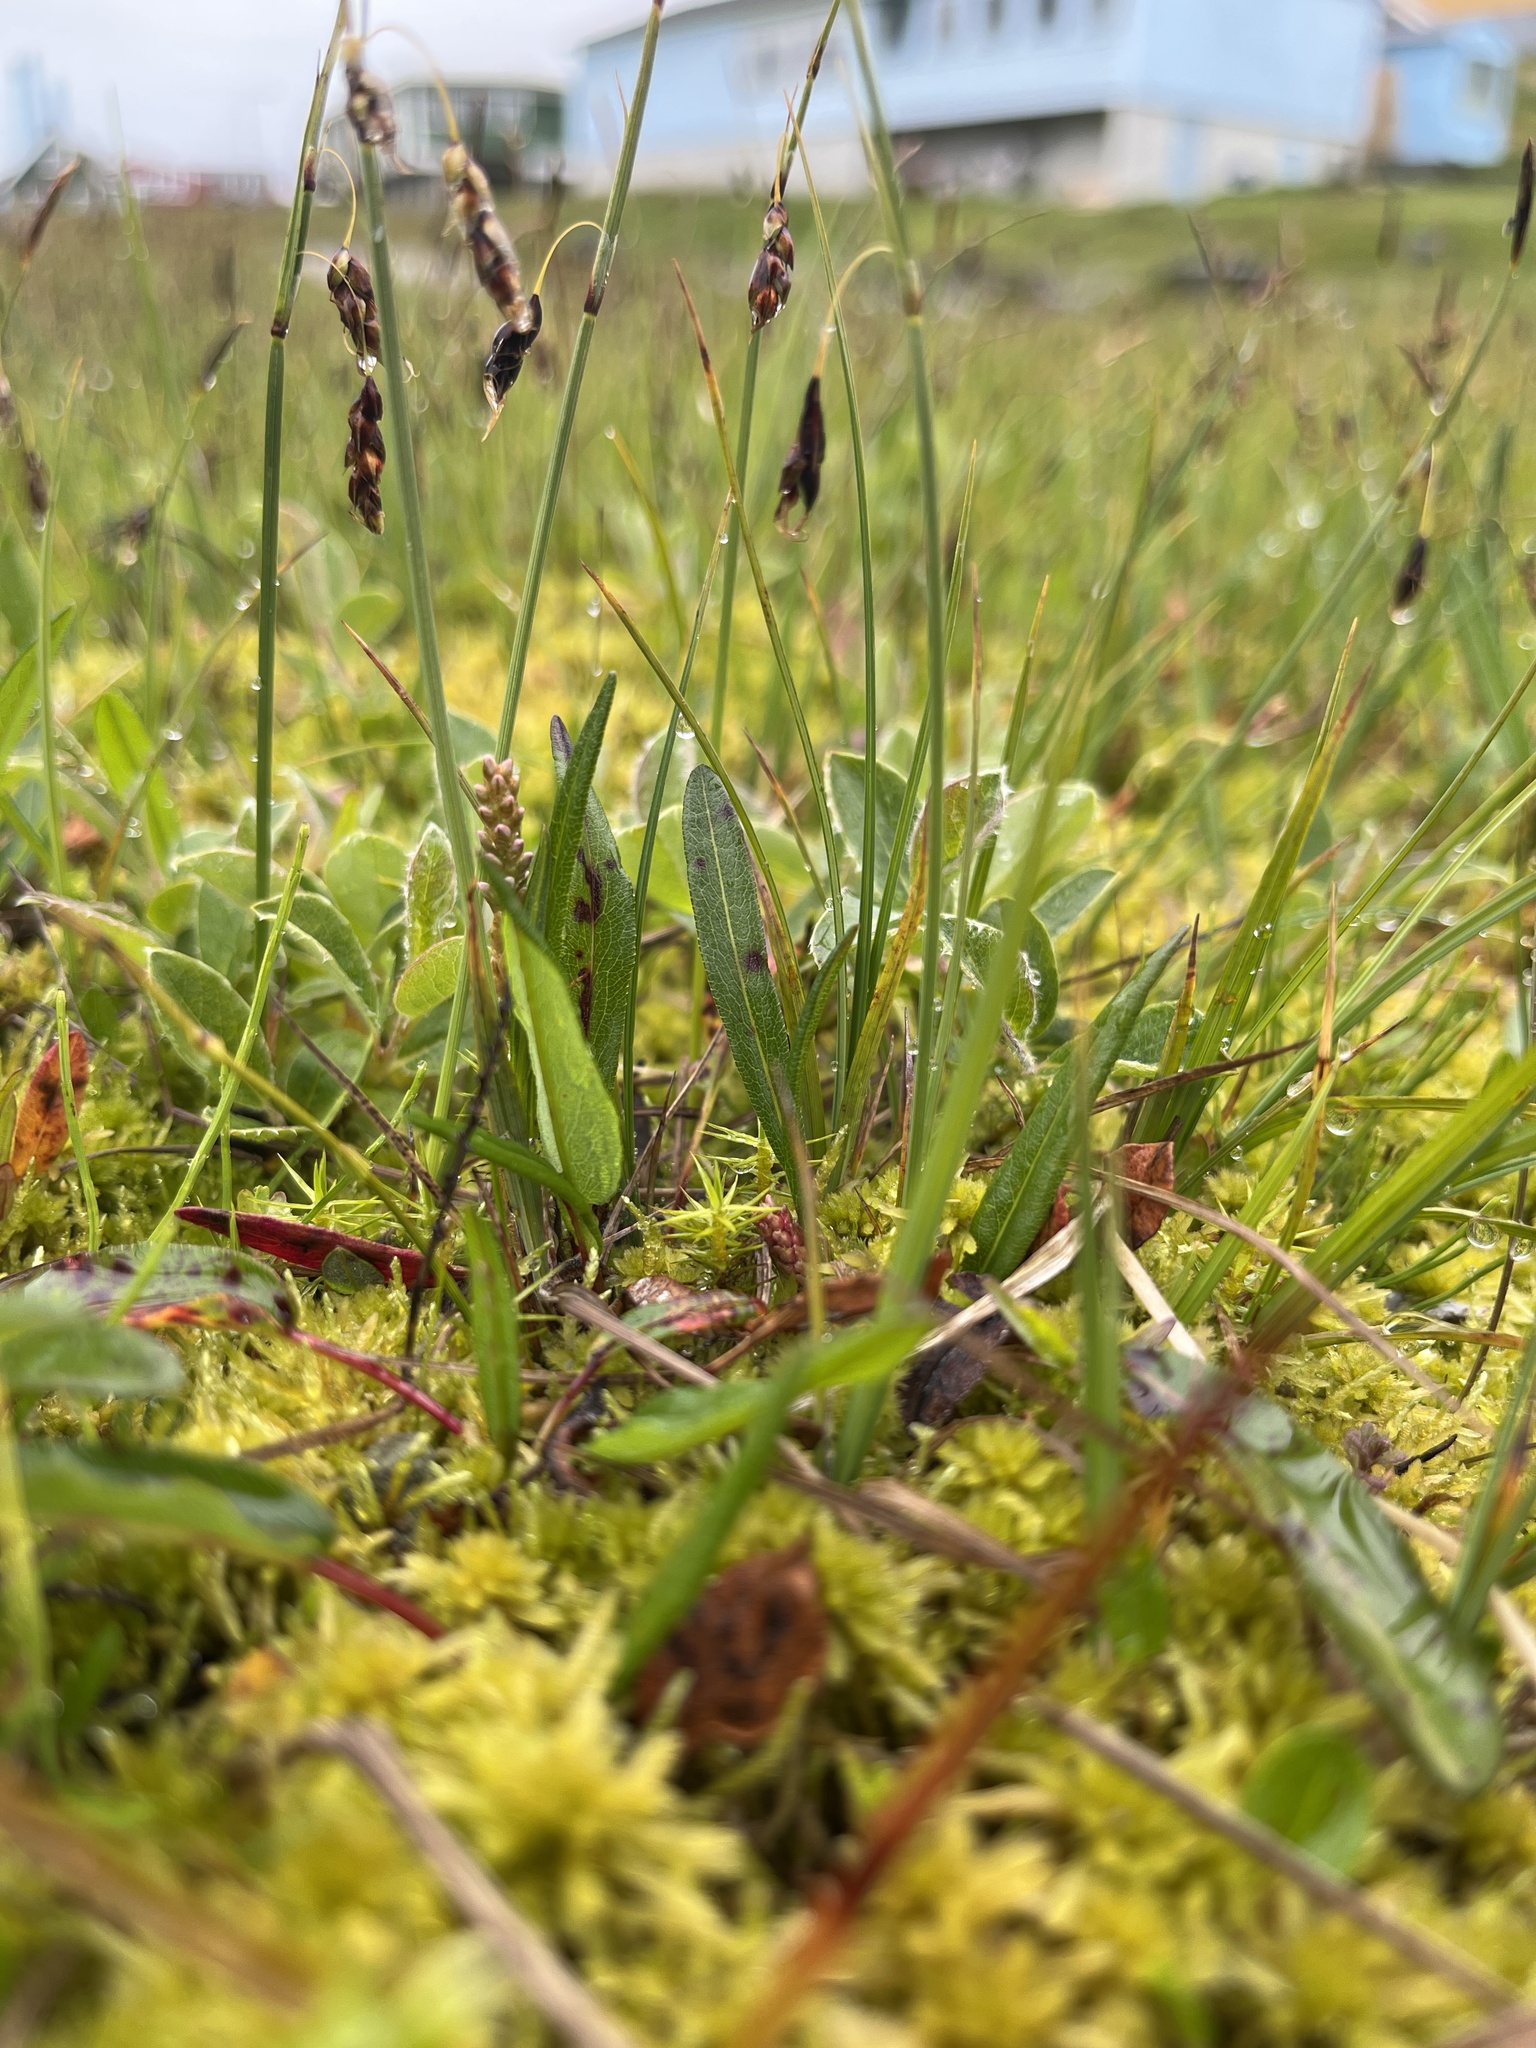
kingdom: Plantae
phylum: Tracheophyta
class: Magnoliopsida
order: Caryophyllales
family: Polygonaceae
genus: Bistorta
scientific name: Bistorta vivipara
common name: Alpine bistort
